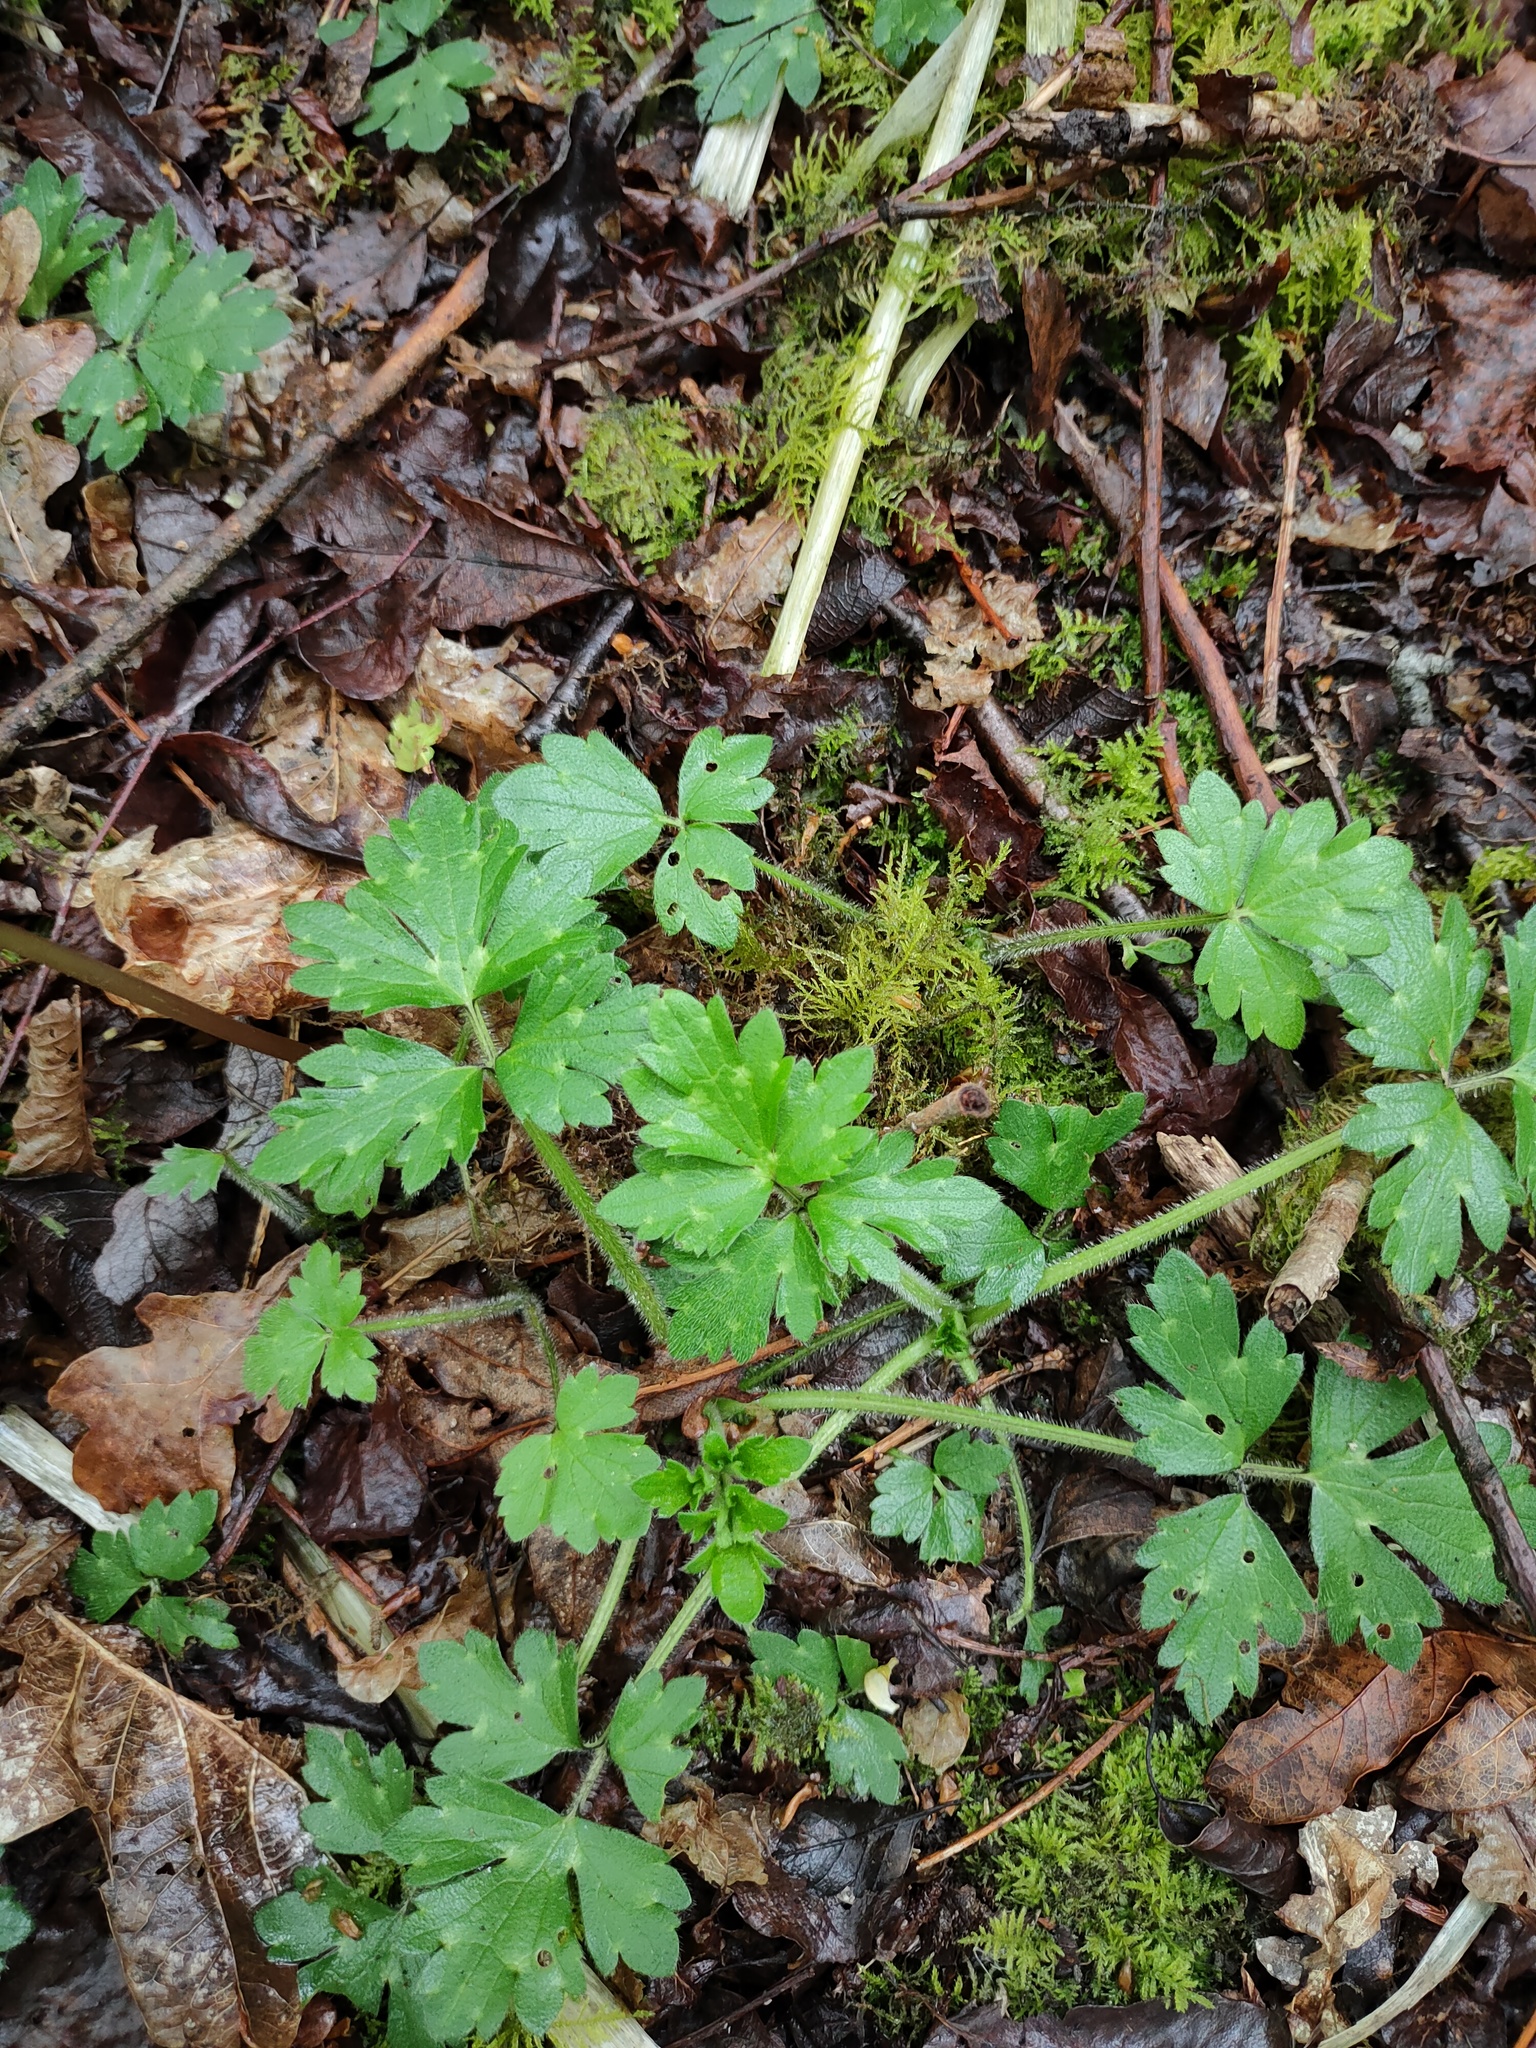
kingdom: Plantae
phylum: Tracheophyta
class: Magnoliopsida
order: Ranunculales
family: Ranunculaceae
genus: Ranunculus
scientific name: Ranunculus repens
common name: Creeping buttercup
